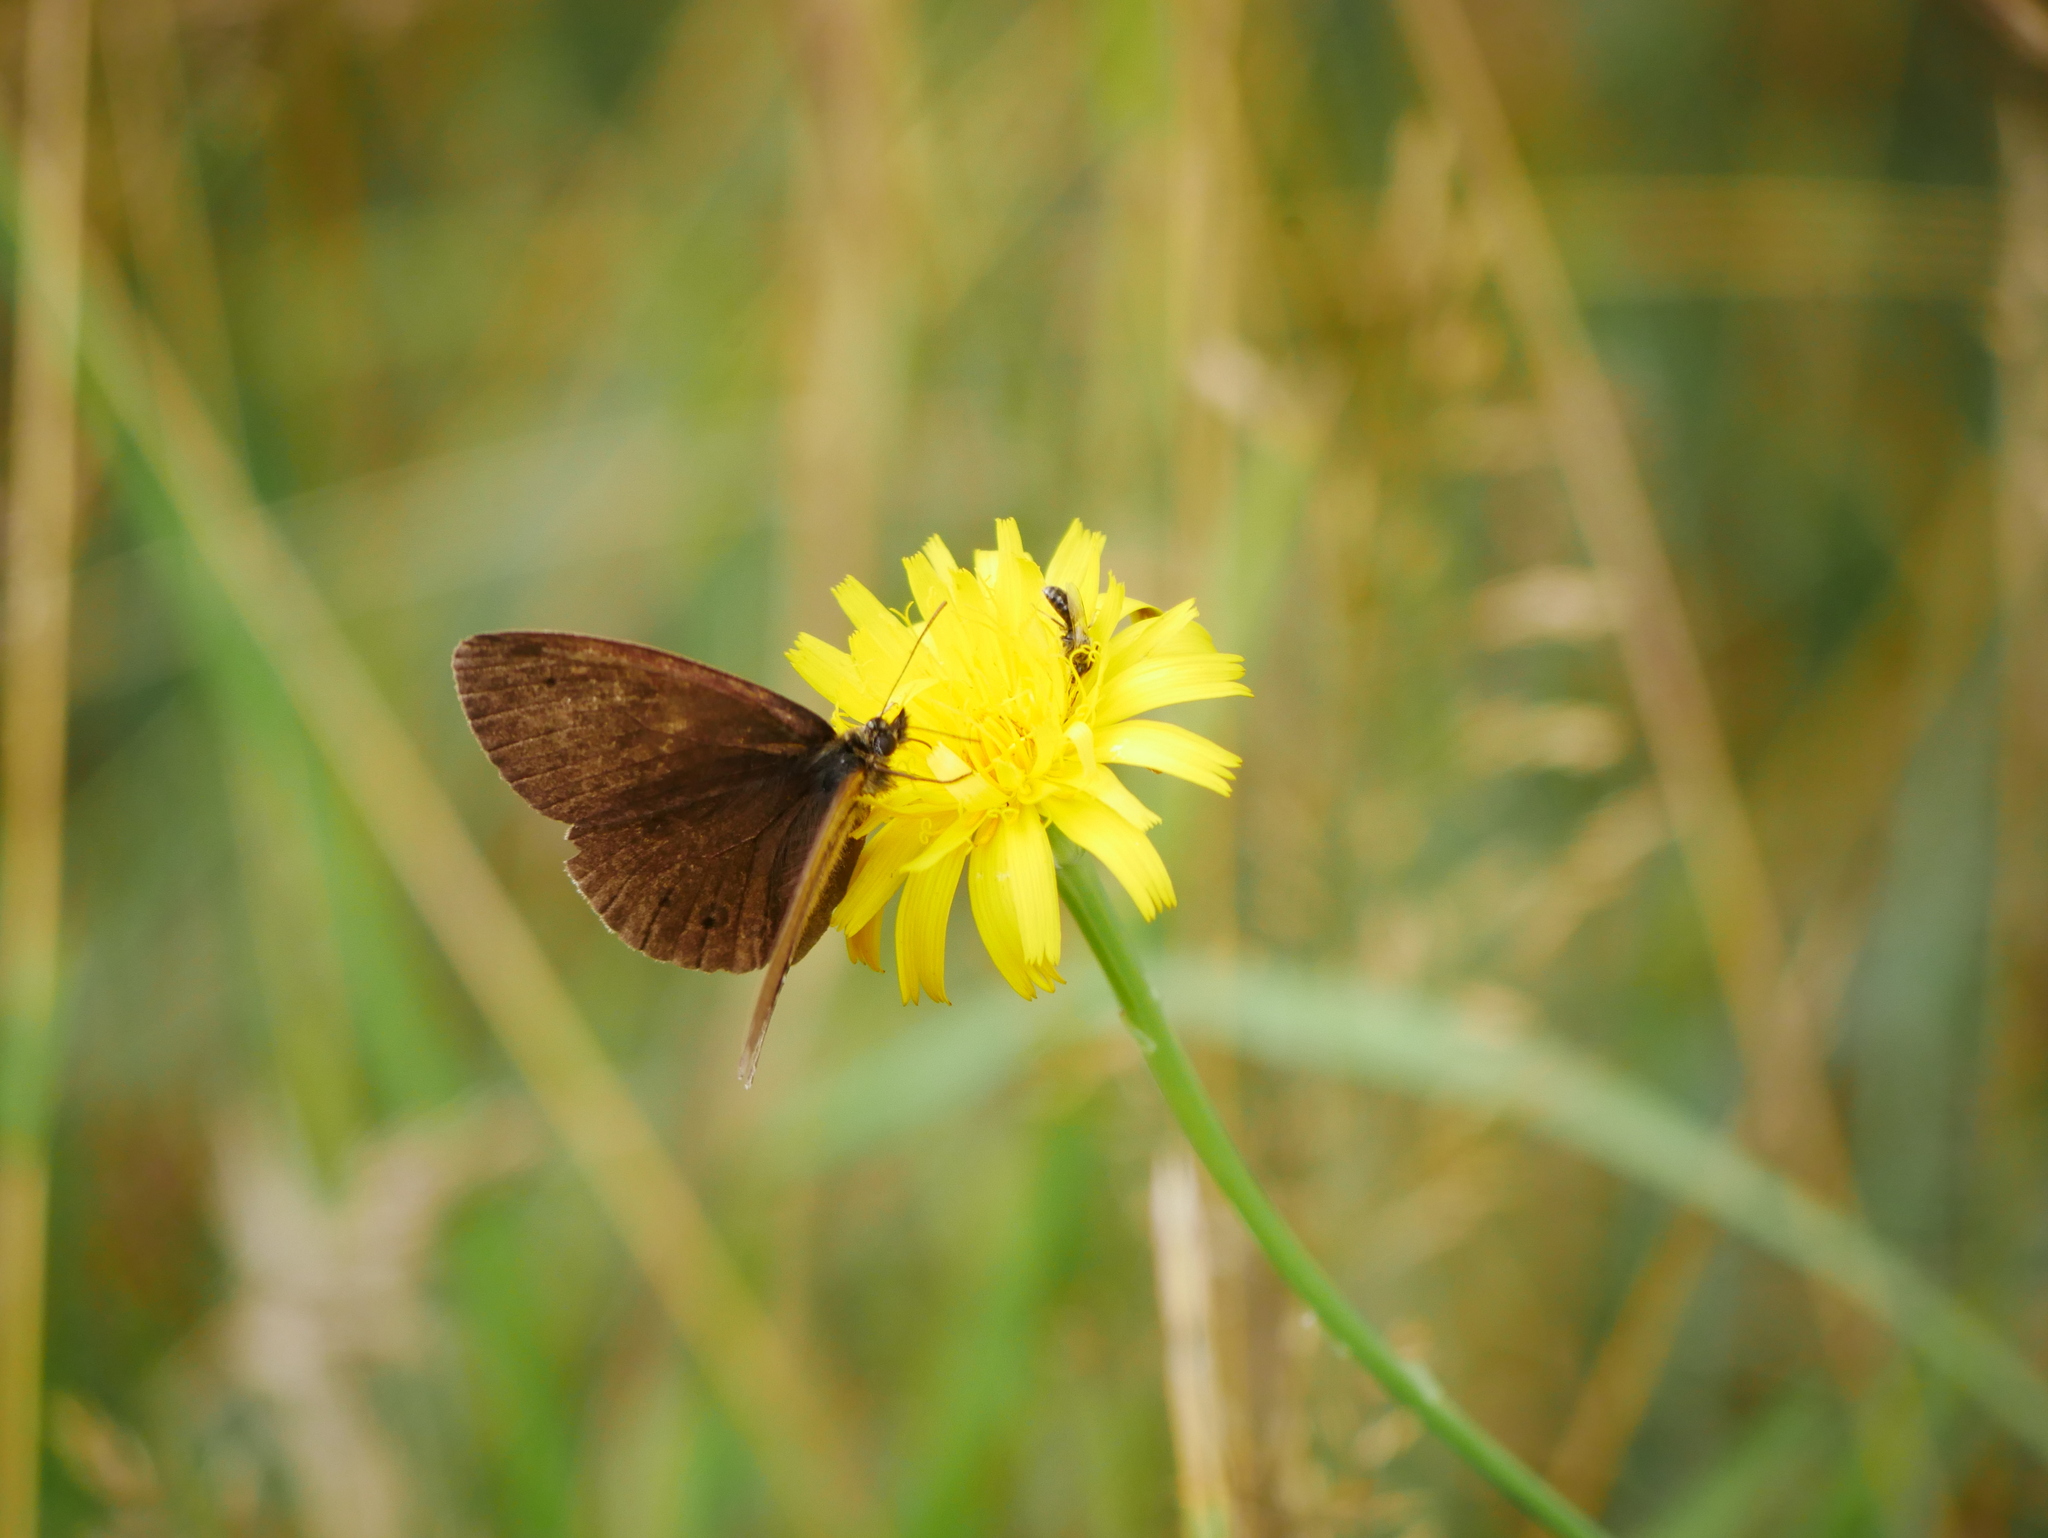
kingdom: Animalia
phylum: Arthropoda
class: Insecta
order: Lepidoptera
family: Nymphalidae
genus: Aphantopus
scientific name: Aphantopus hyperantus
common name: Ringlet
